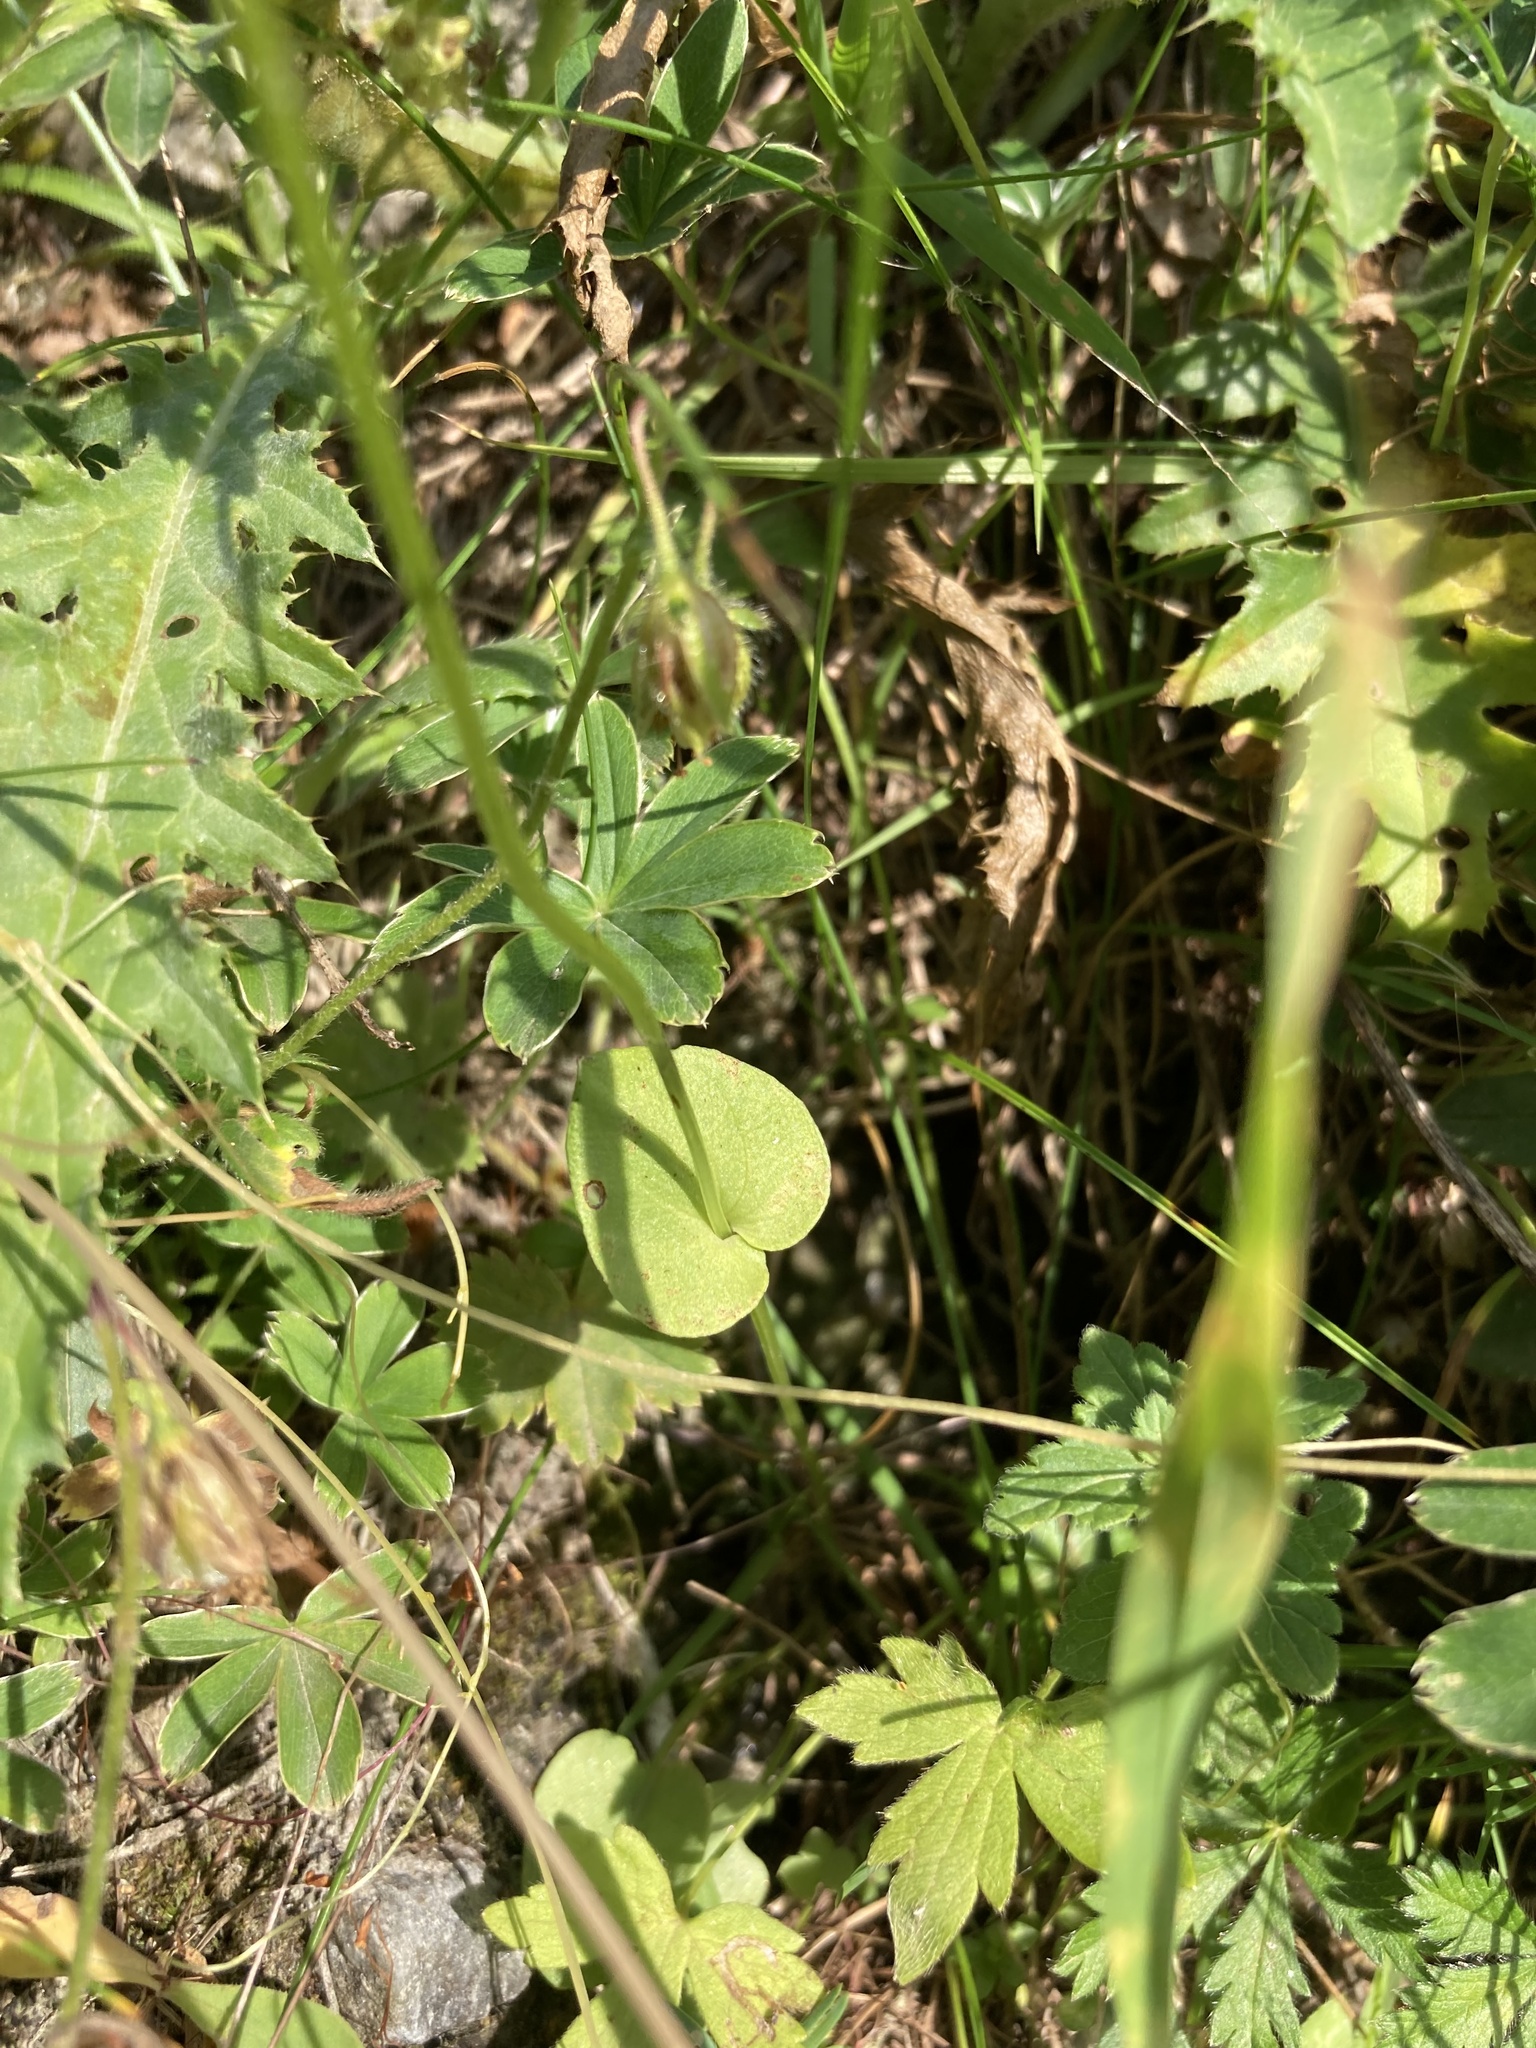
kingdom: Plantae
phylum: Tracheophyta
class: Magnoliopsida
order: Celastrales
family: Parnassiaceae
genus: Parnassia
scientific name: Parnassia palustris
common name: Grass-of-parnassus
